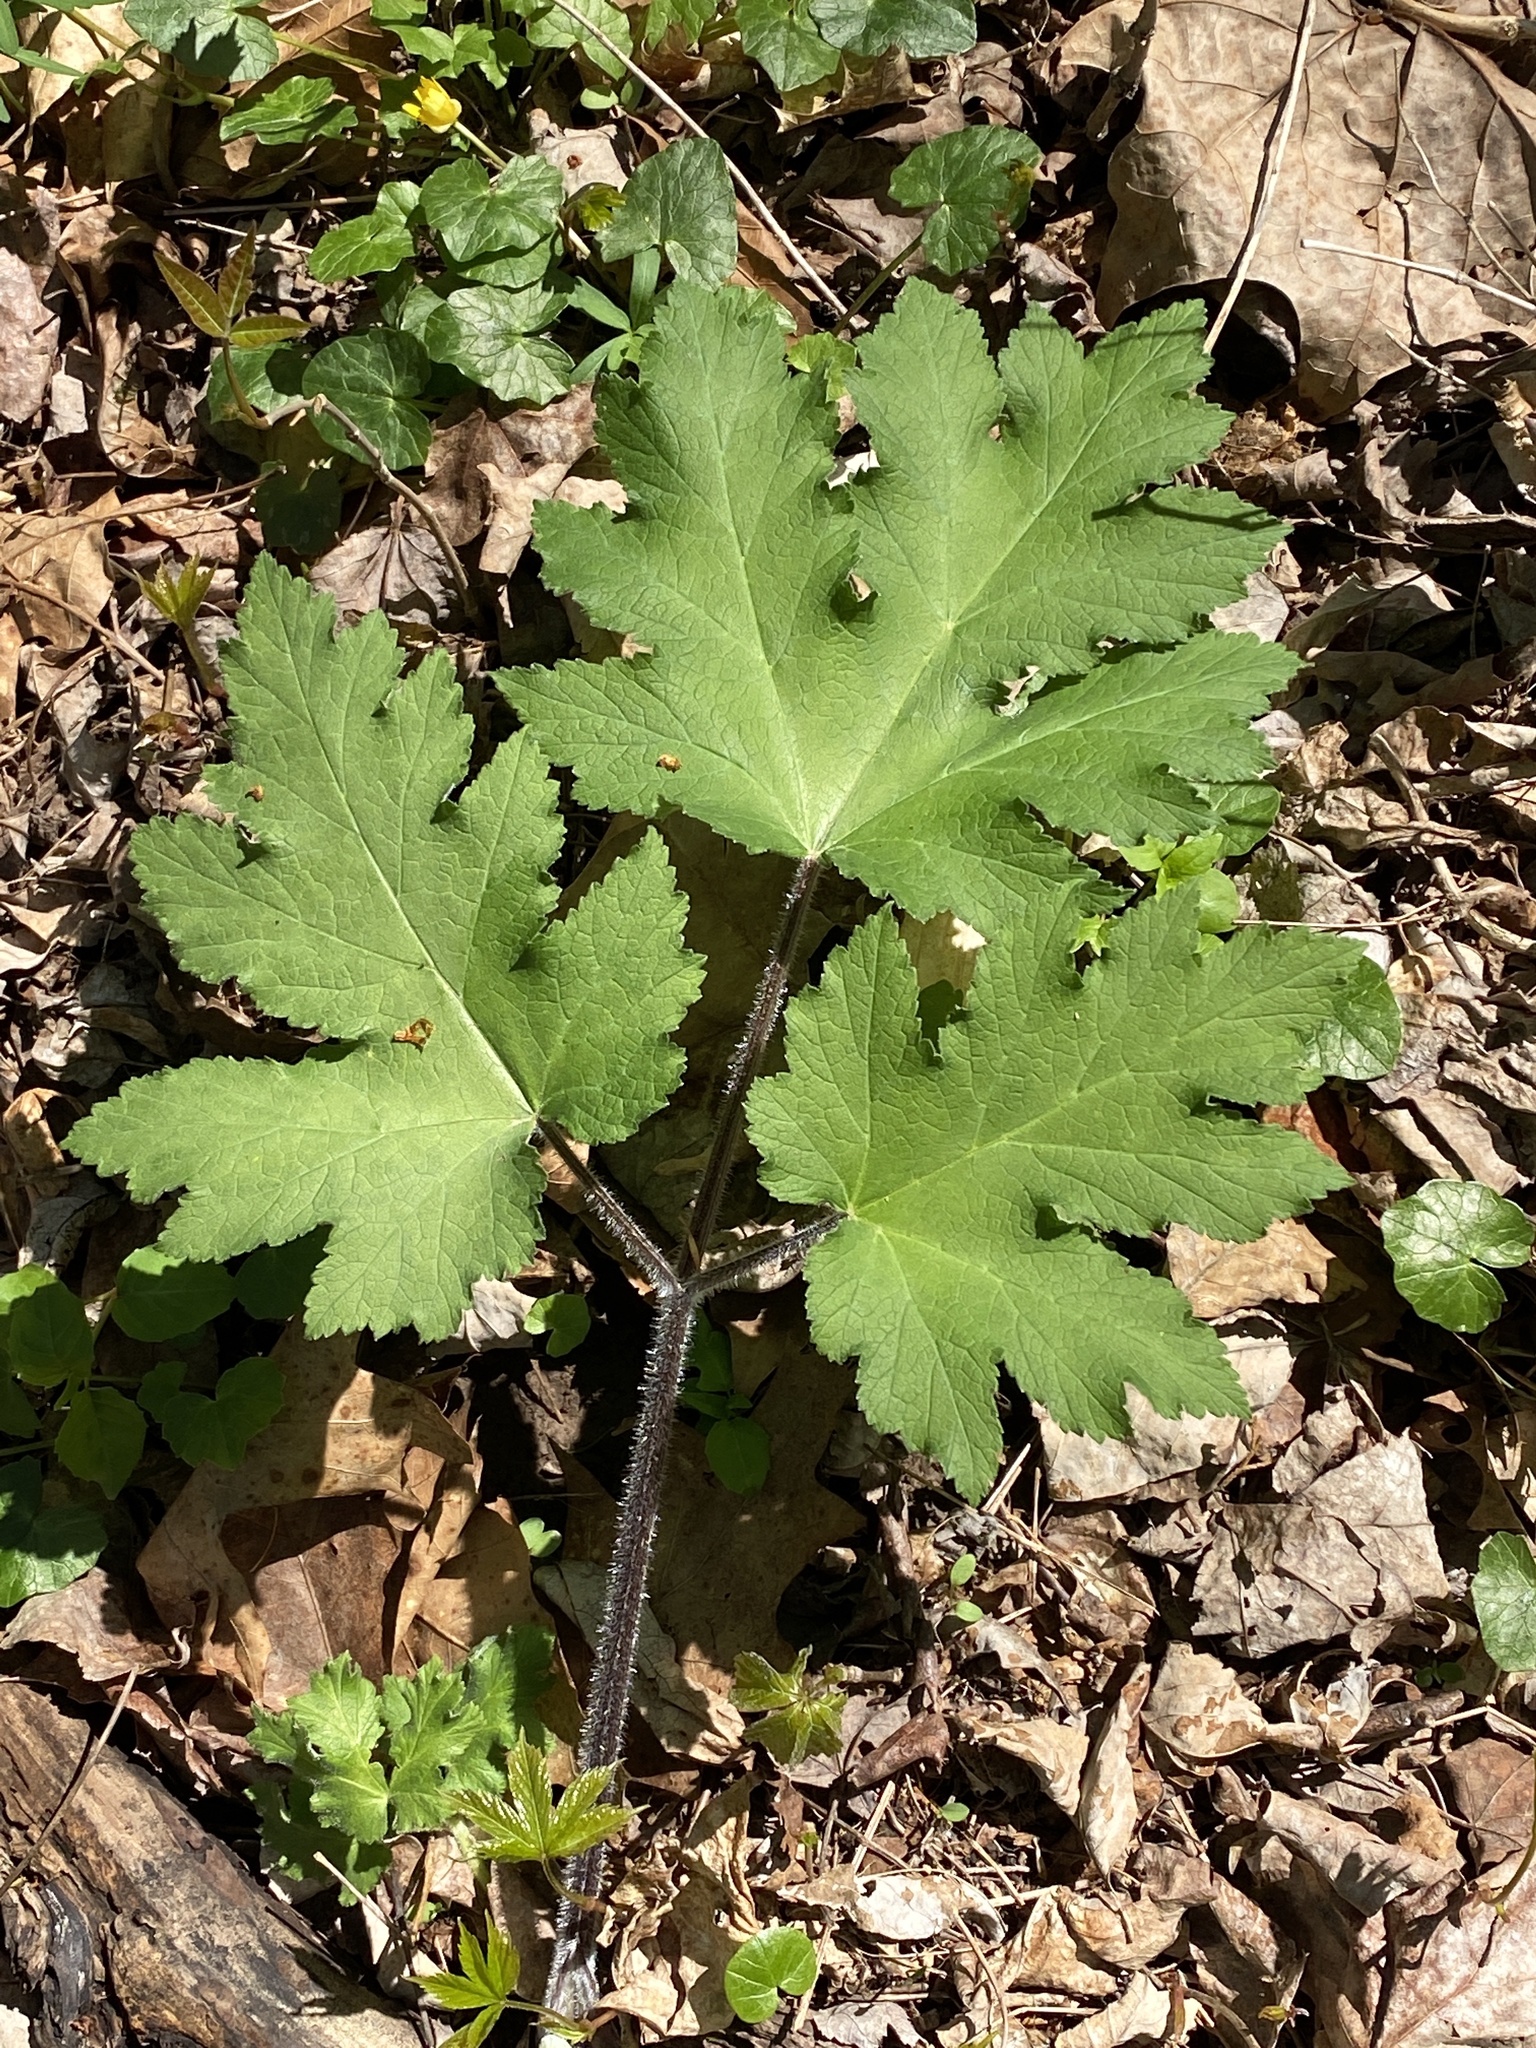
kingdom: Plantae
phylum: Tracheophyta
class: Magnoliopsida
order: Apiales
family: Apiaceae
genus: Heracleum
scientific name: Heracleum maximum
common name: American cow parsnip
